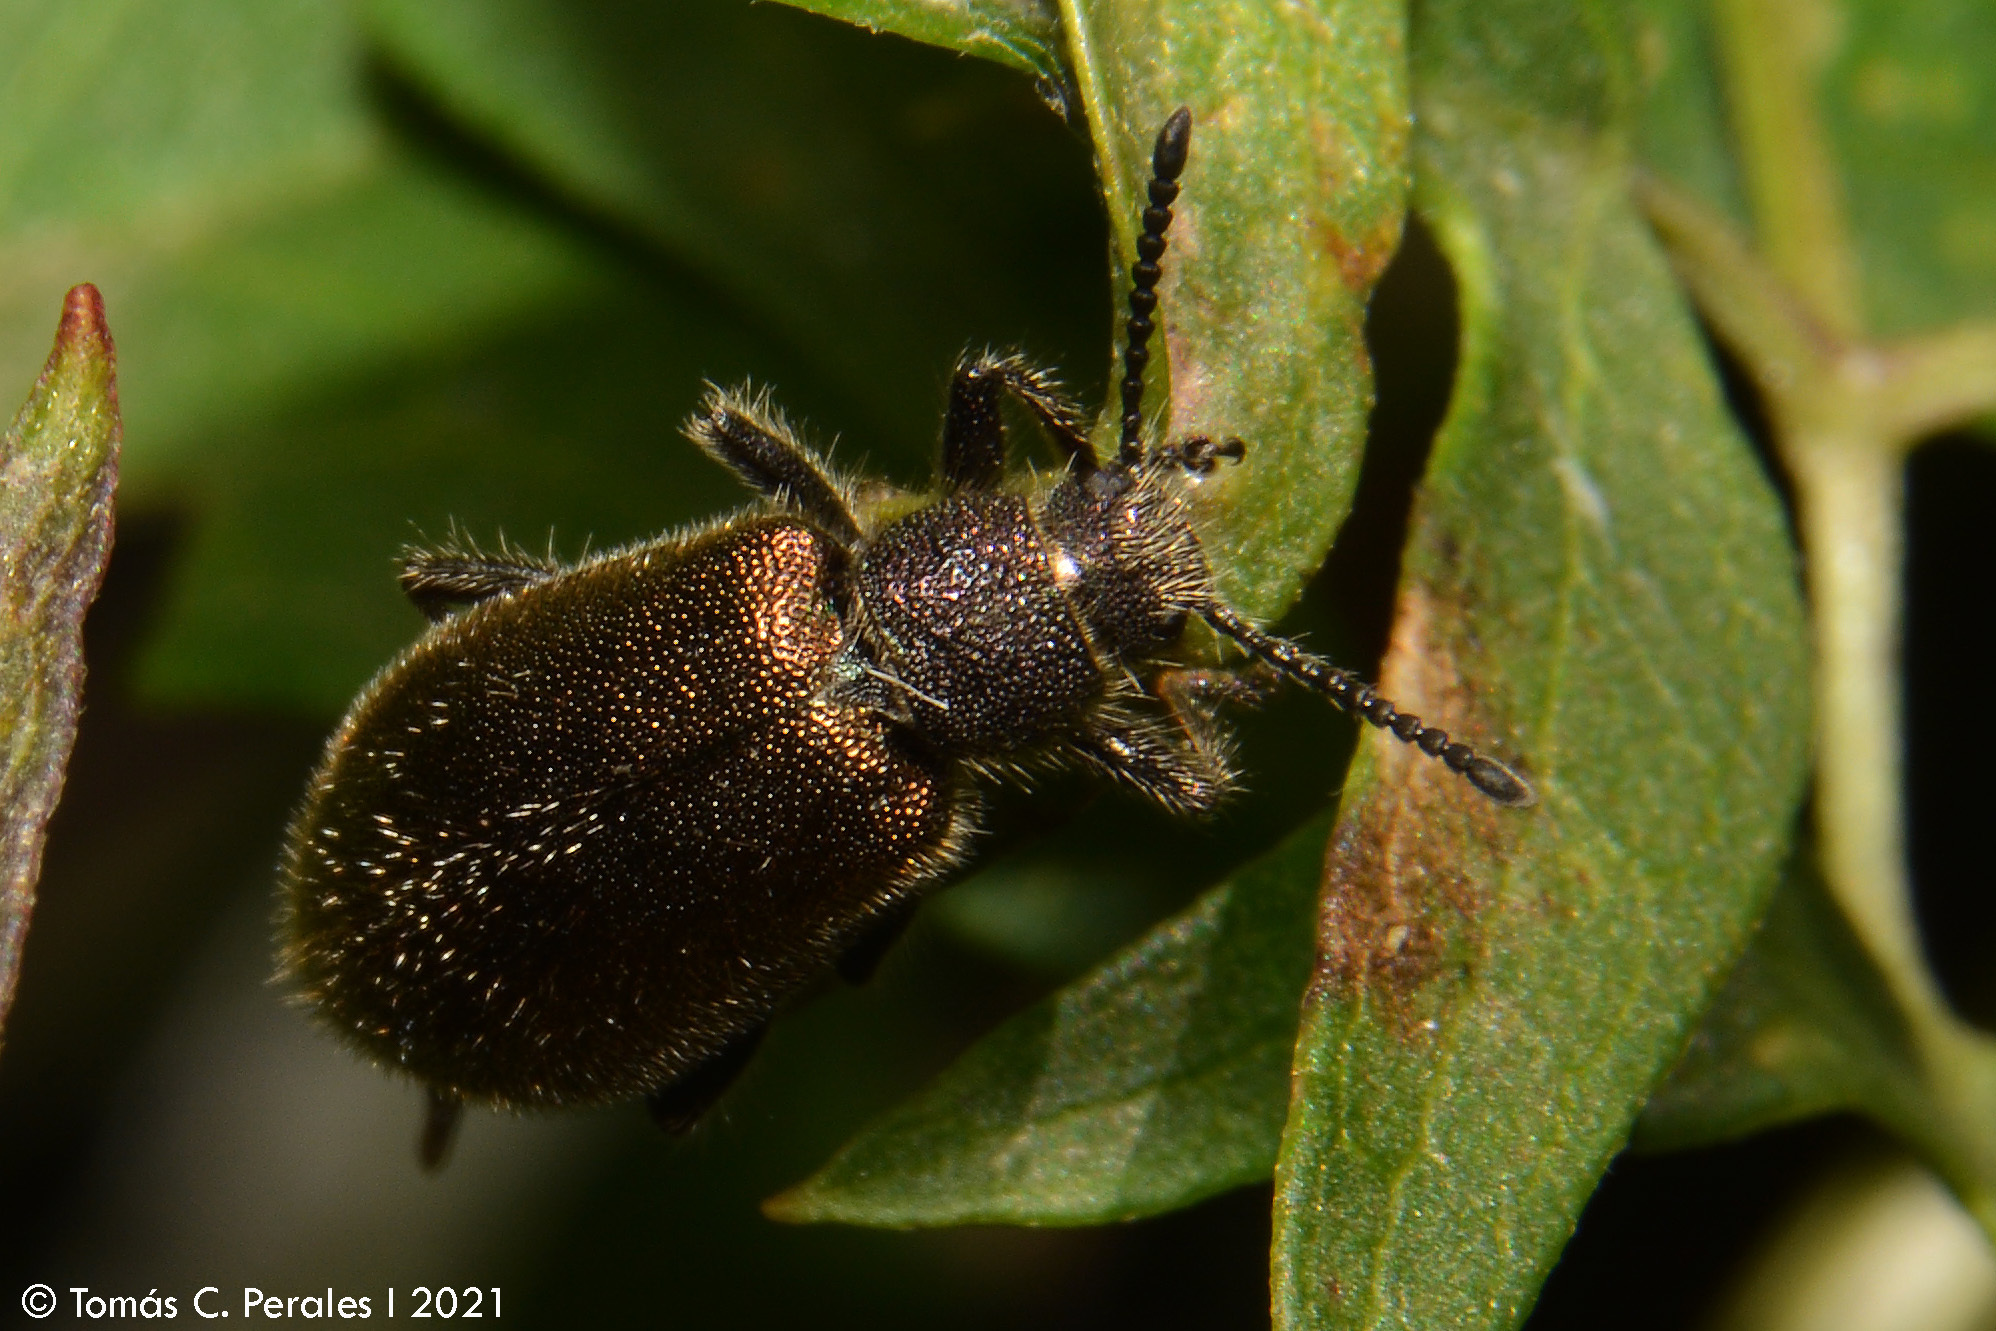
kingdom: Animalia
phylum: Arthropoda
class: Insecta
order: Coleoptera
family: Tenebrionidae
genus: Lagria
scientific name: Lagria villosa
